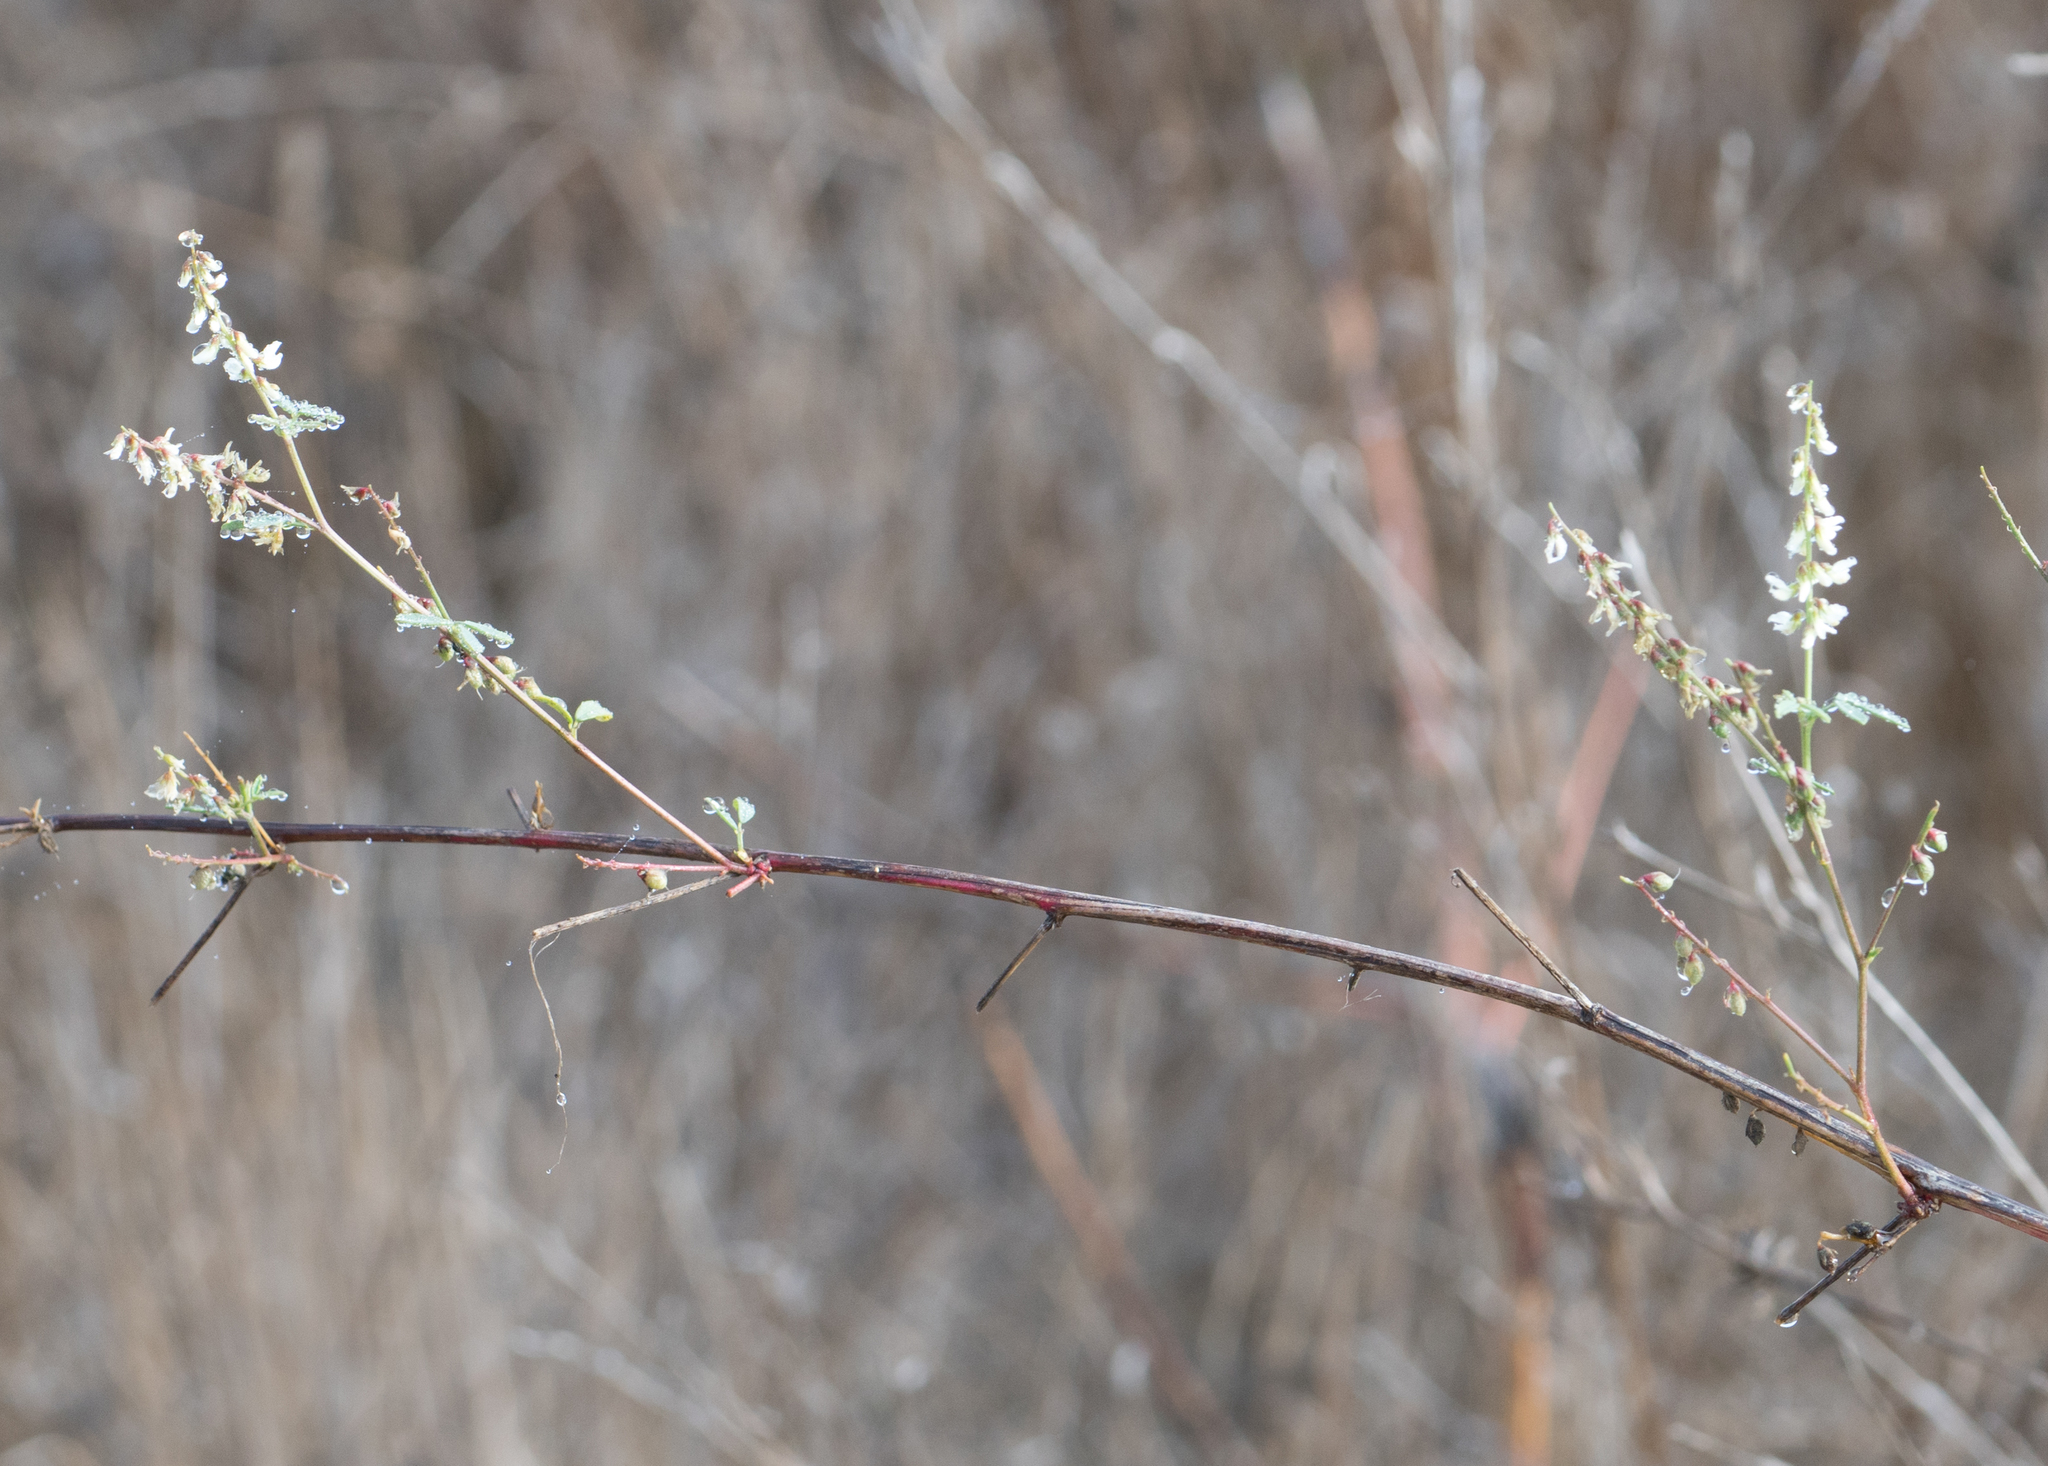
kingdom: Plantae
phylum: Tracheophyta
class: Magnoliopsida
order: Fabales
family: Fabaceae
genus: Melilotus
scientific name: Melilotus albus
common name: White melilot
